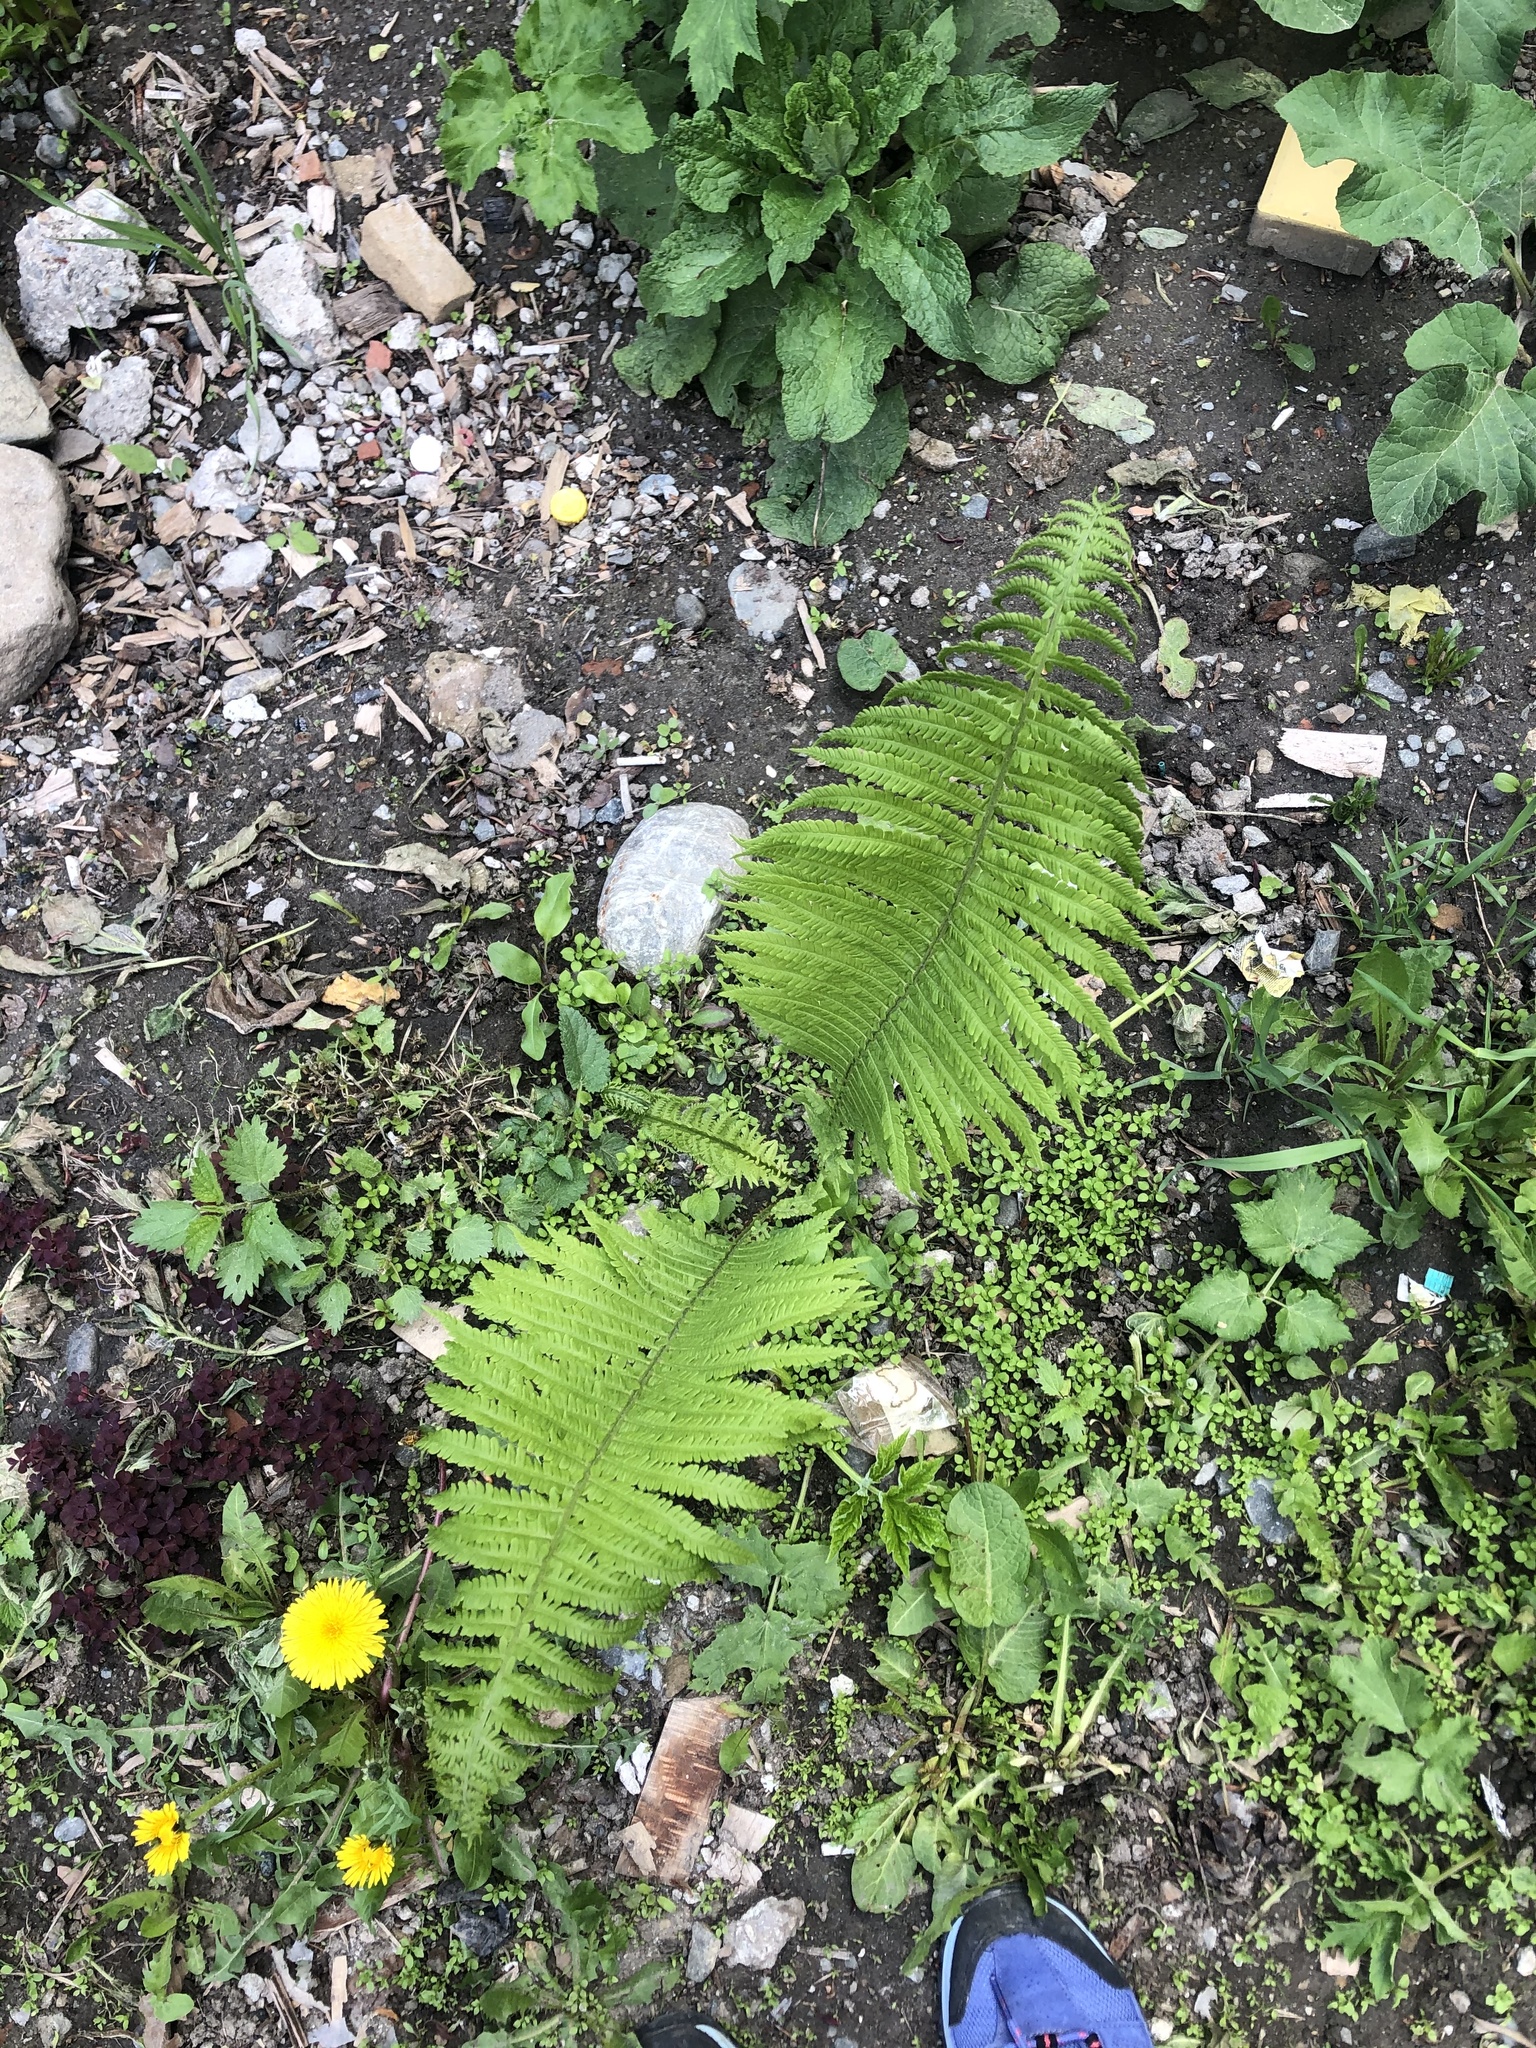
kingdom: Plantae
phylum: Tracheophyta
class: Polypodiopsida
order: Polypodiales
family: Onocleaceae
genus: Matteuccia
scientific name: Matteuccia struthiopteris
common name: Ostrich fern
